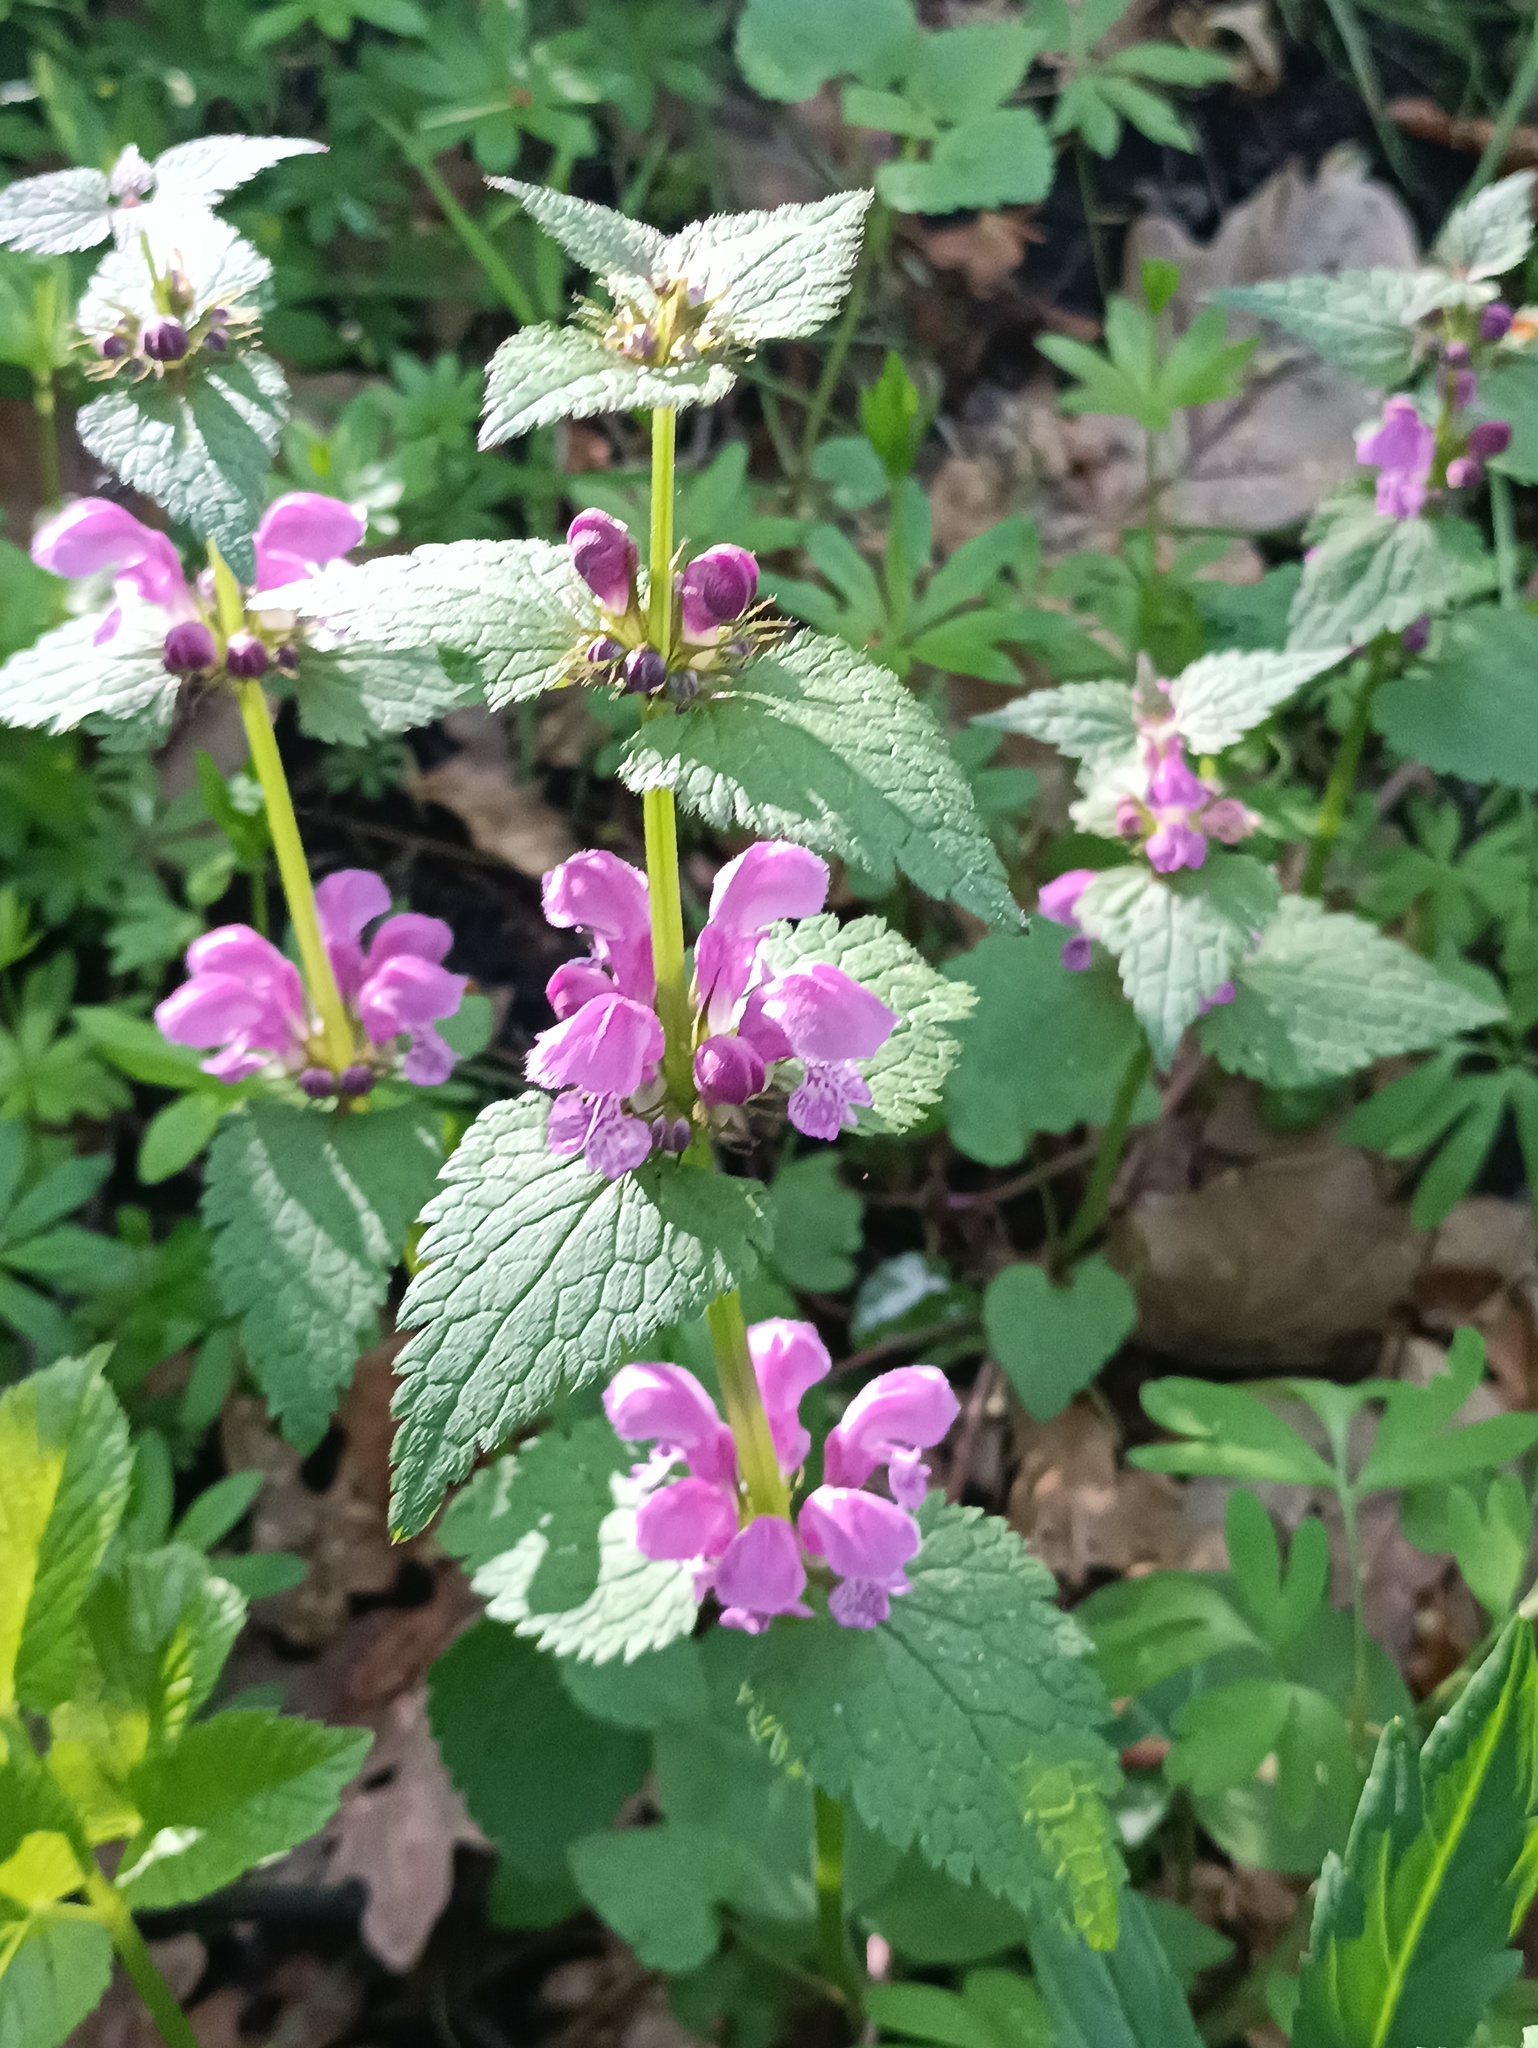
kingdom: Plantae
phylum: Tracheophyta
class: Magnoliopsida
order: Lamiales
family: Lamiaceae
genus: Lamium
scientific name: Lamium maculatum
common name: Spotted dead-nettle
